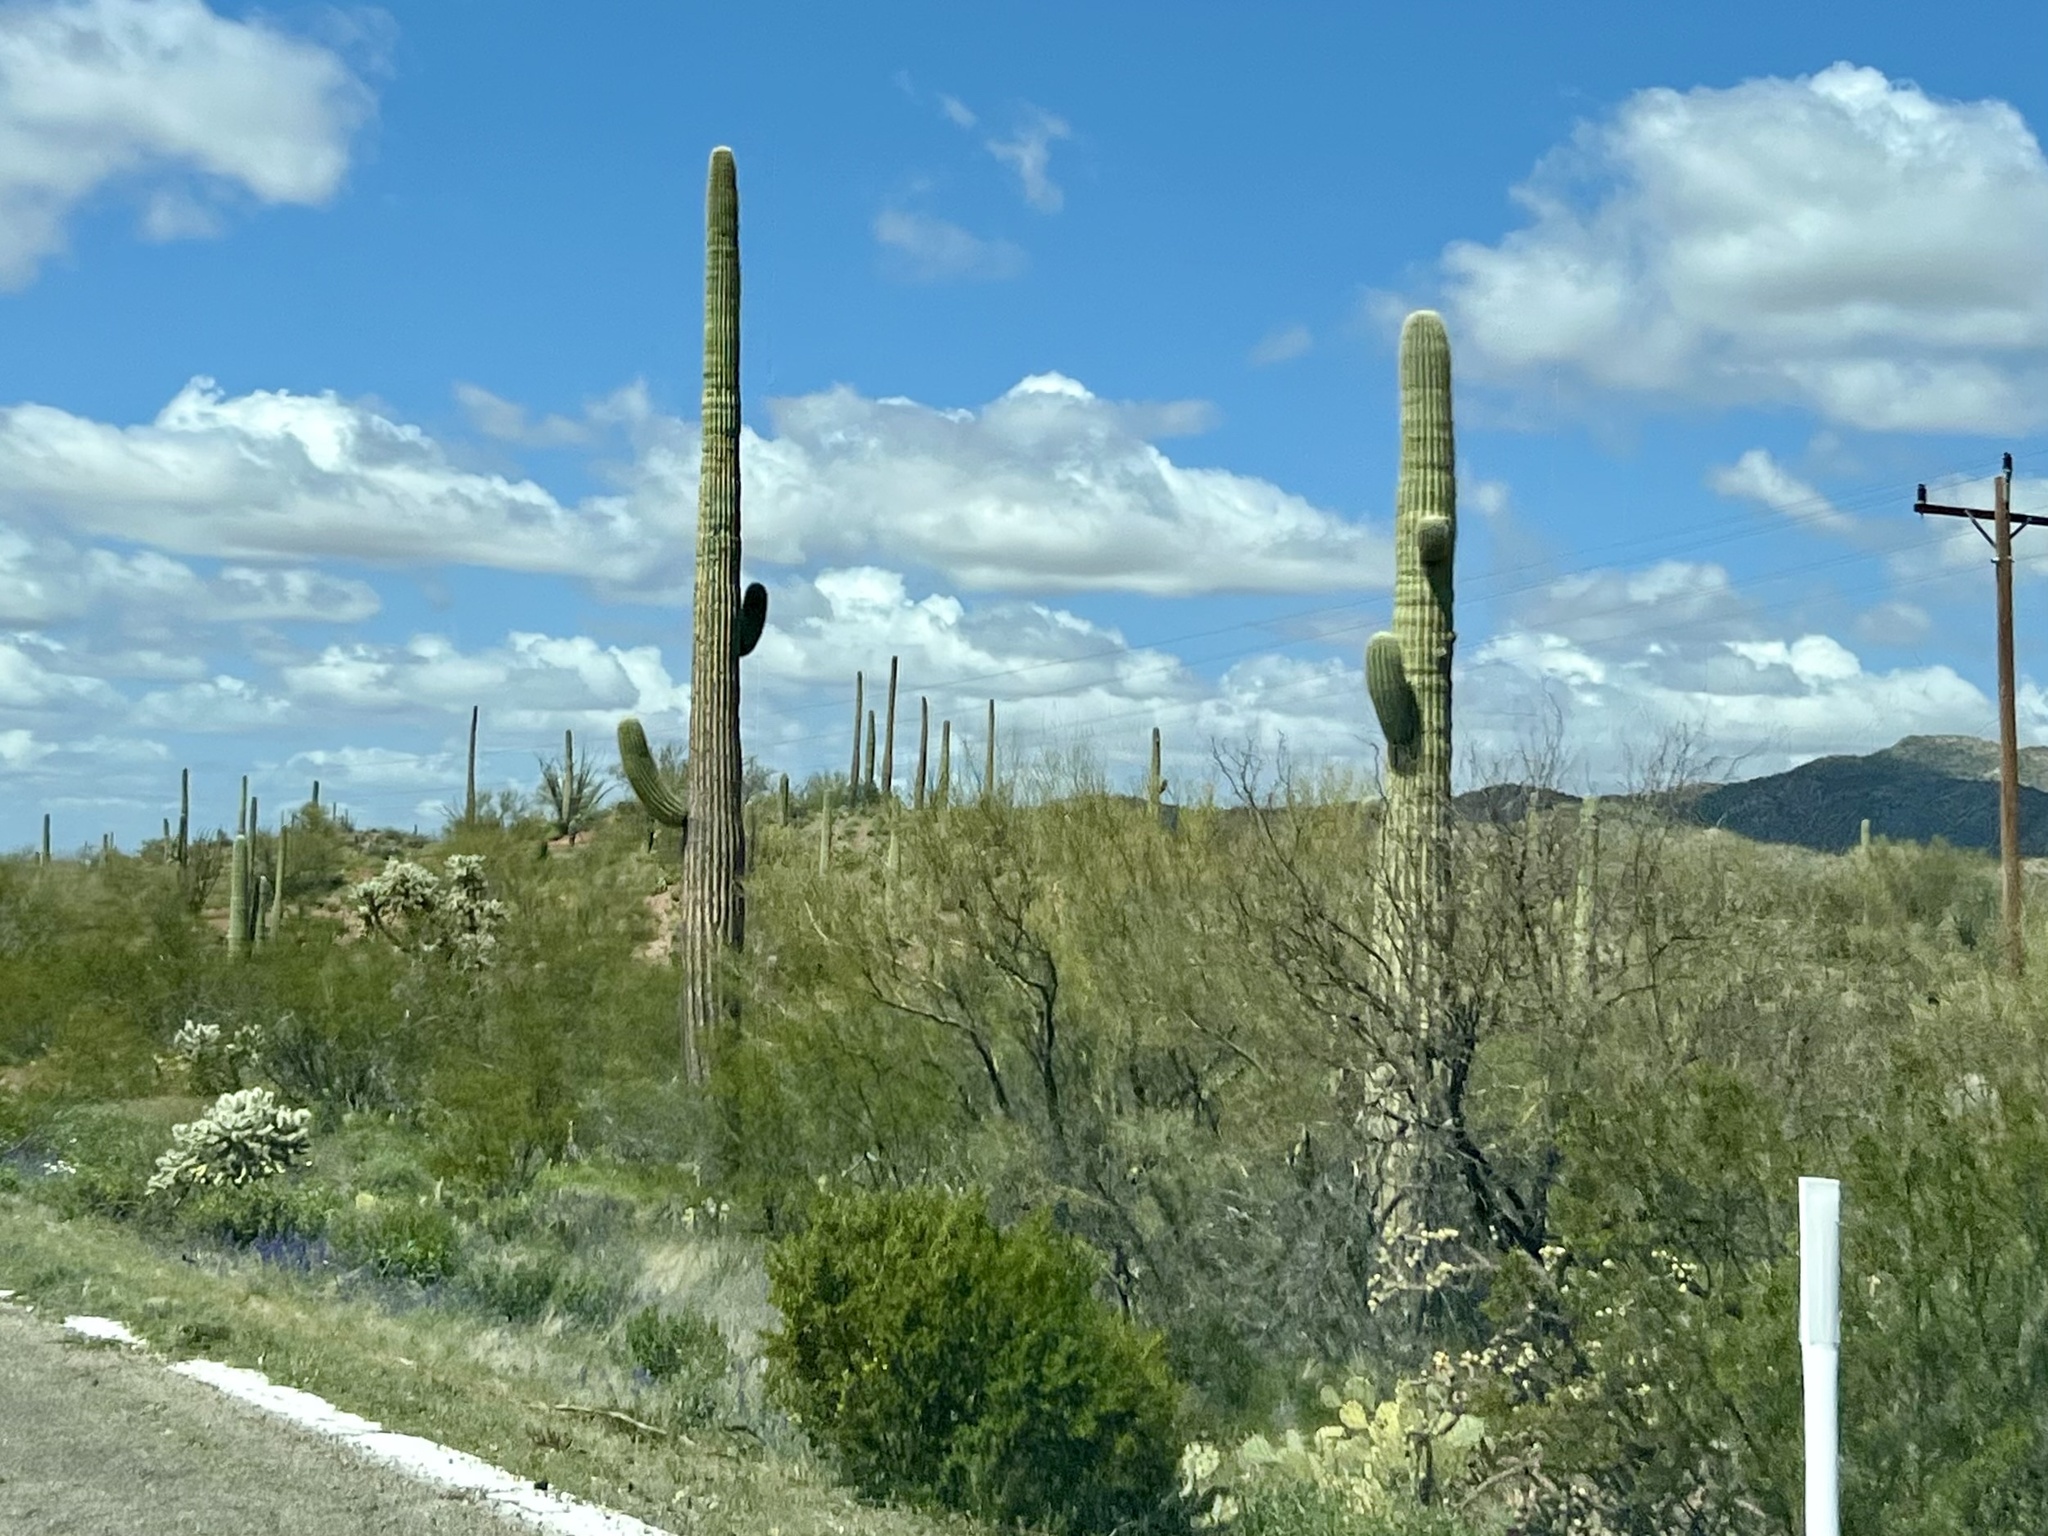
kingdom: Plantae
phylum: Tracheophyta
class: Magnoliopsida
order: Caryophyllales
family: Cactaceae
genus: Carnegiea
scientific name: Carnegiea gigantea
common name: Saguaro
